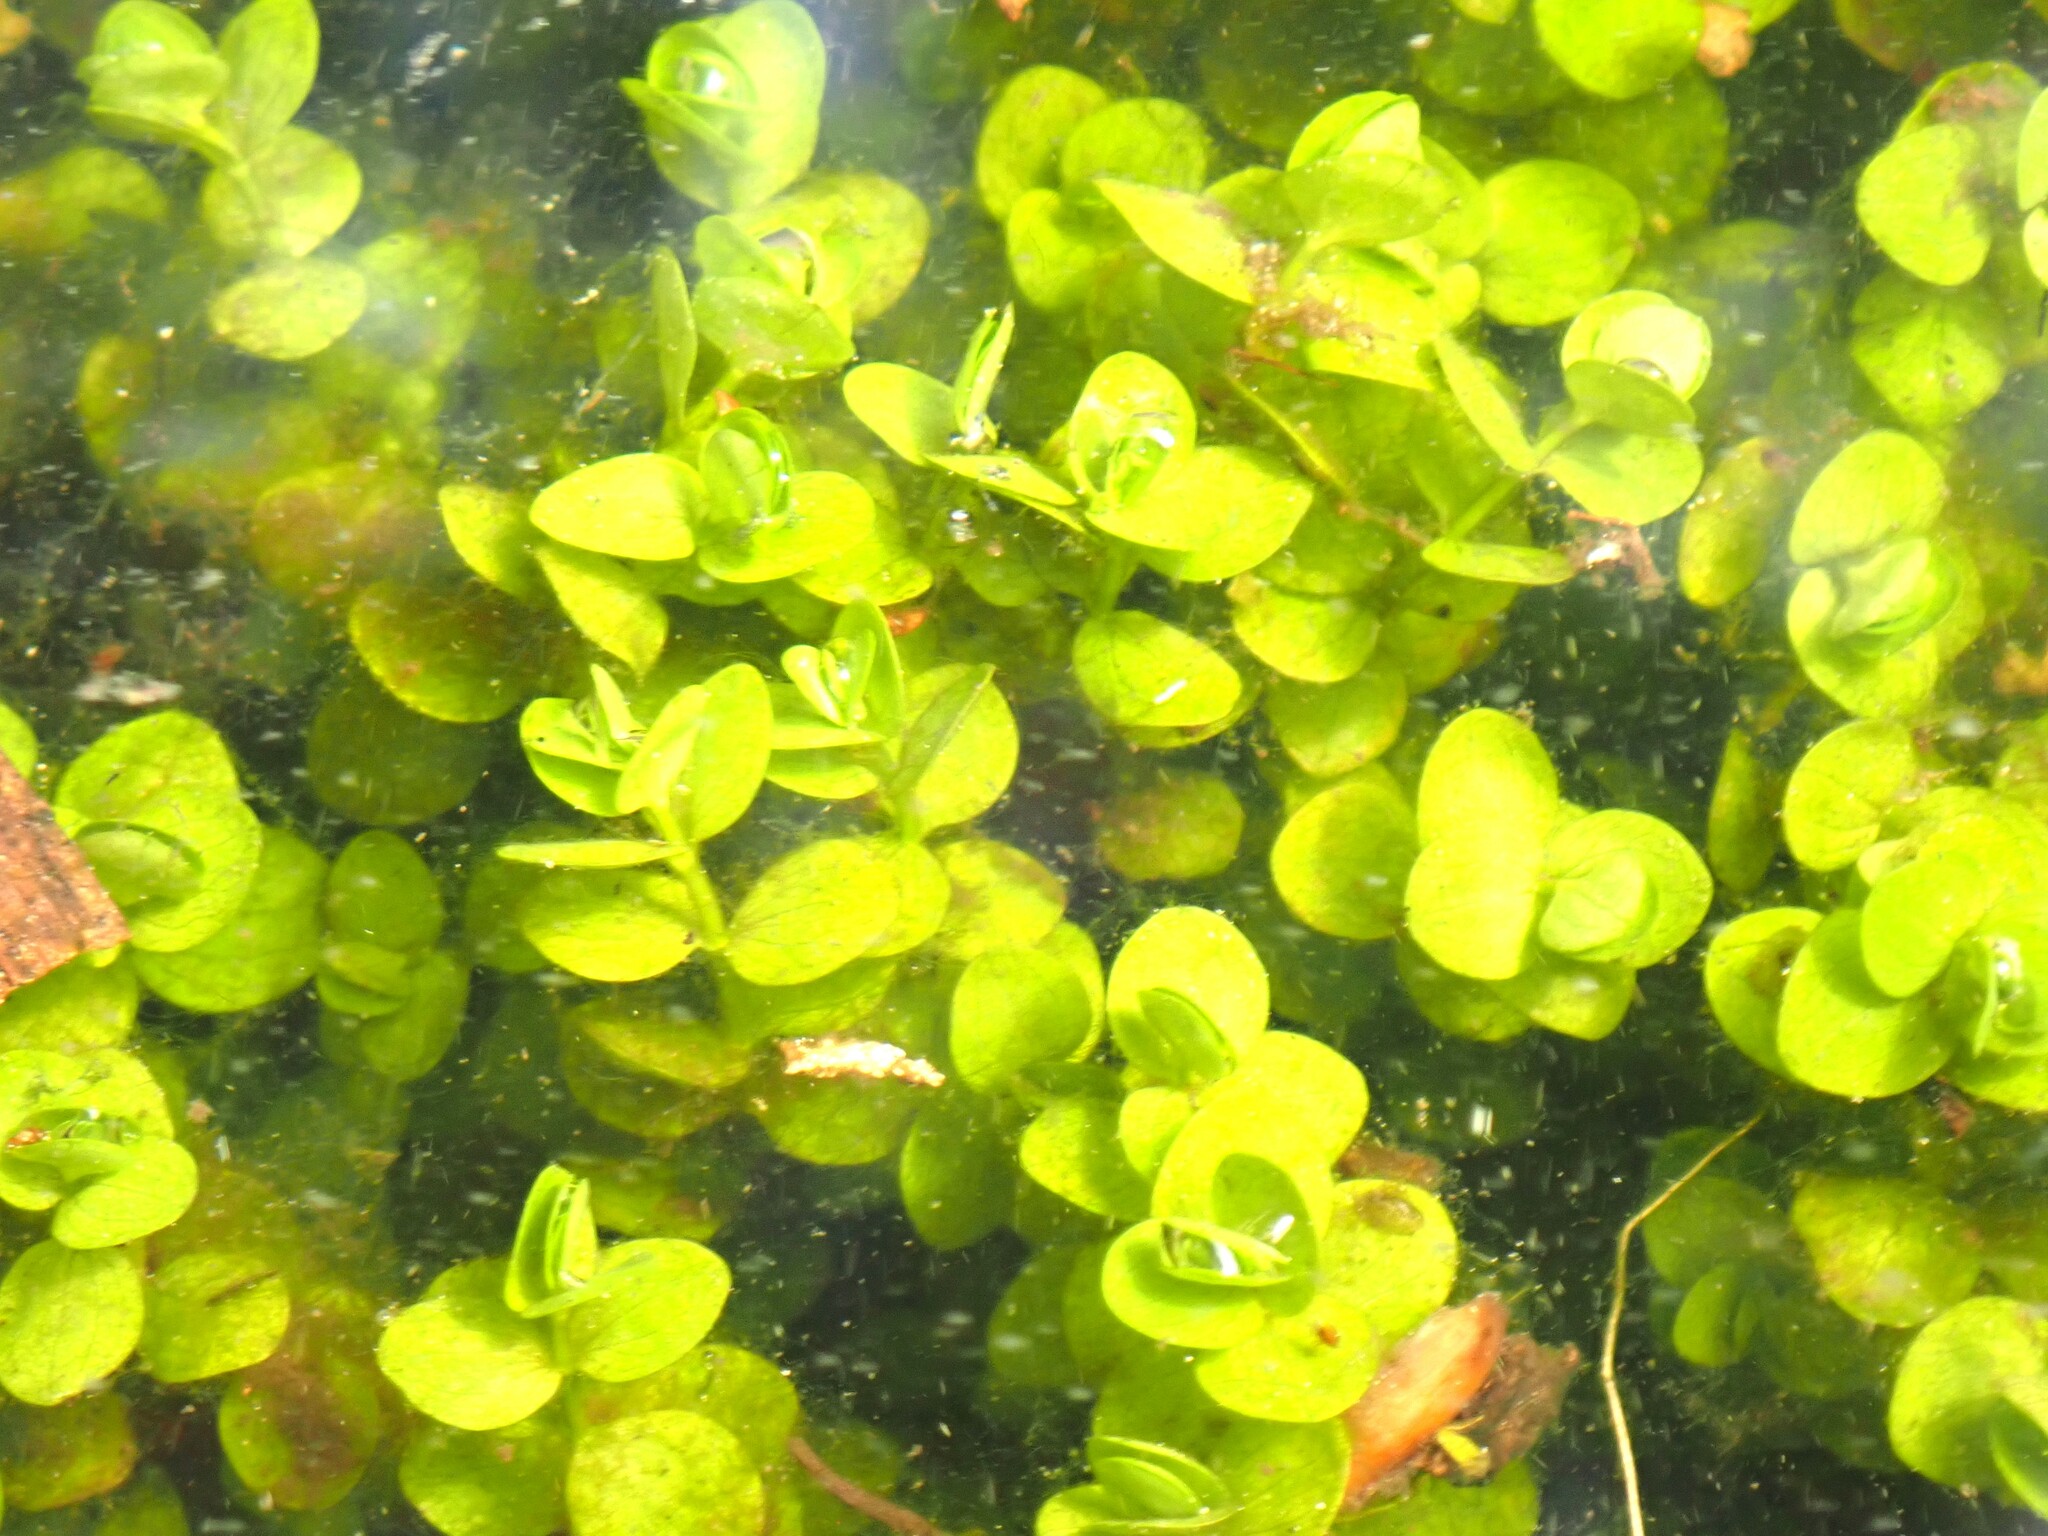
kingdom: Plantae
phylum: Tracheophyta
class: Magnoliopsida
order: Lamiales
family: Linderniaceae
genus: Micranthemum
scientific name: Micranthemum umbrosum
